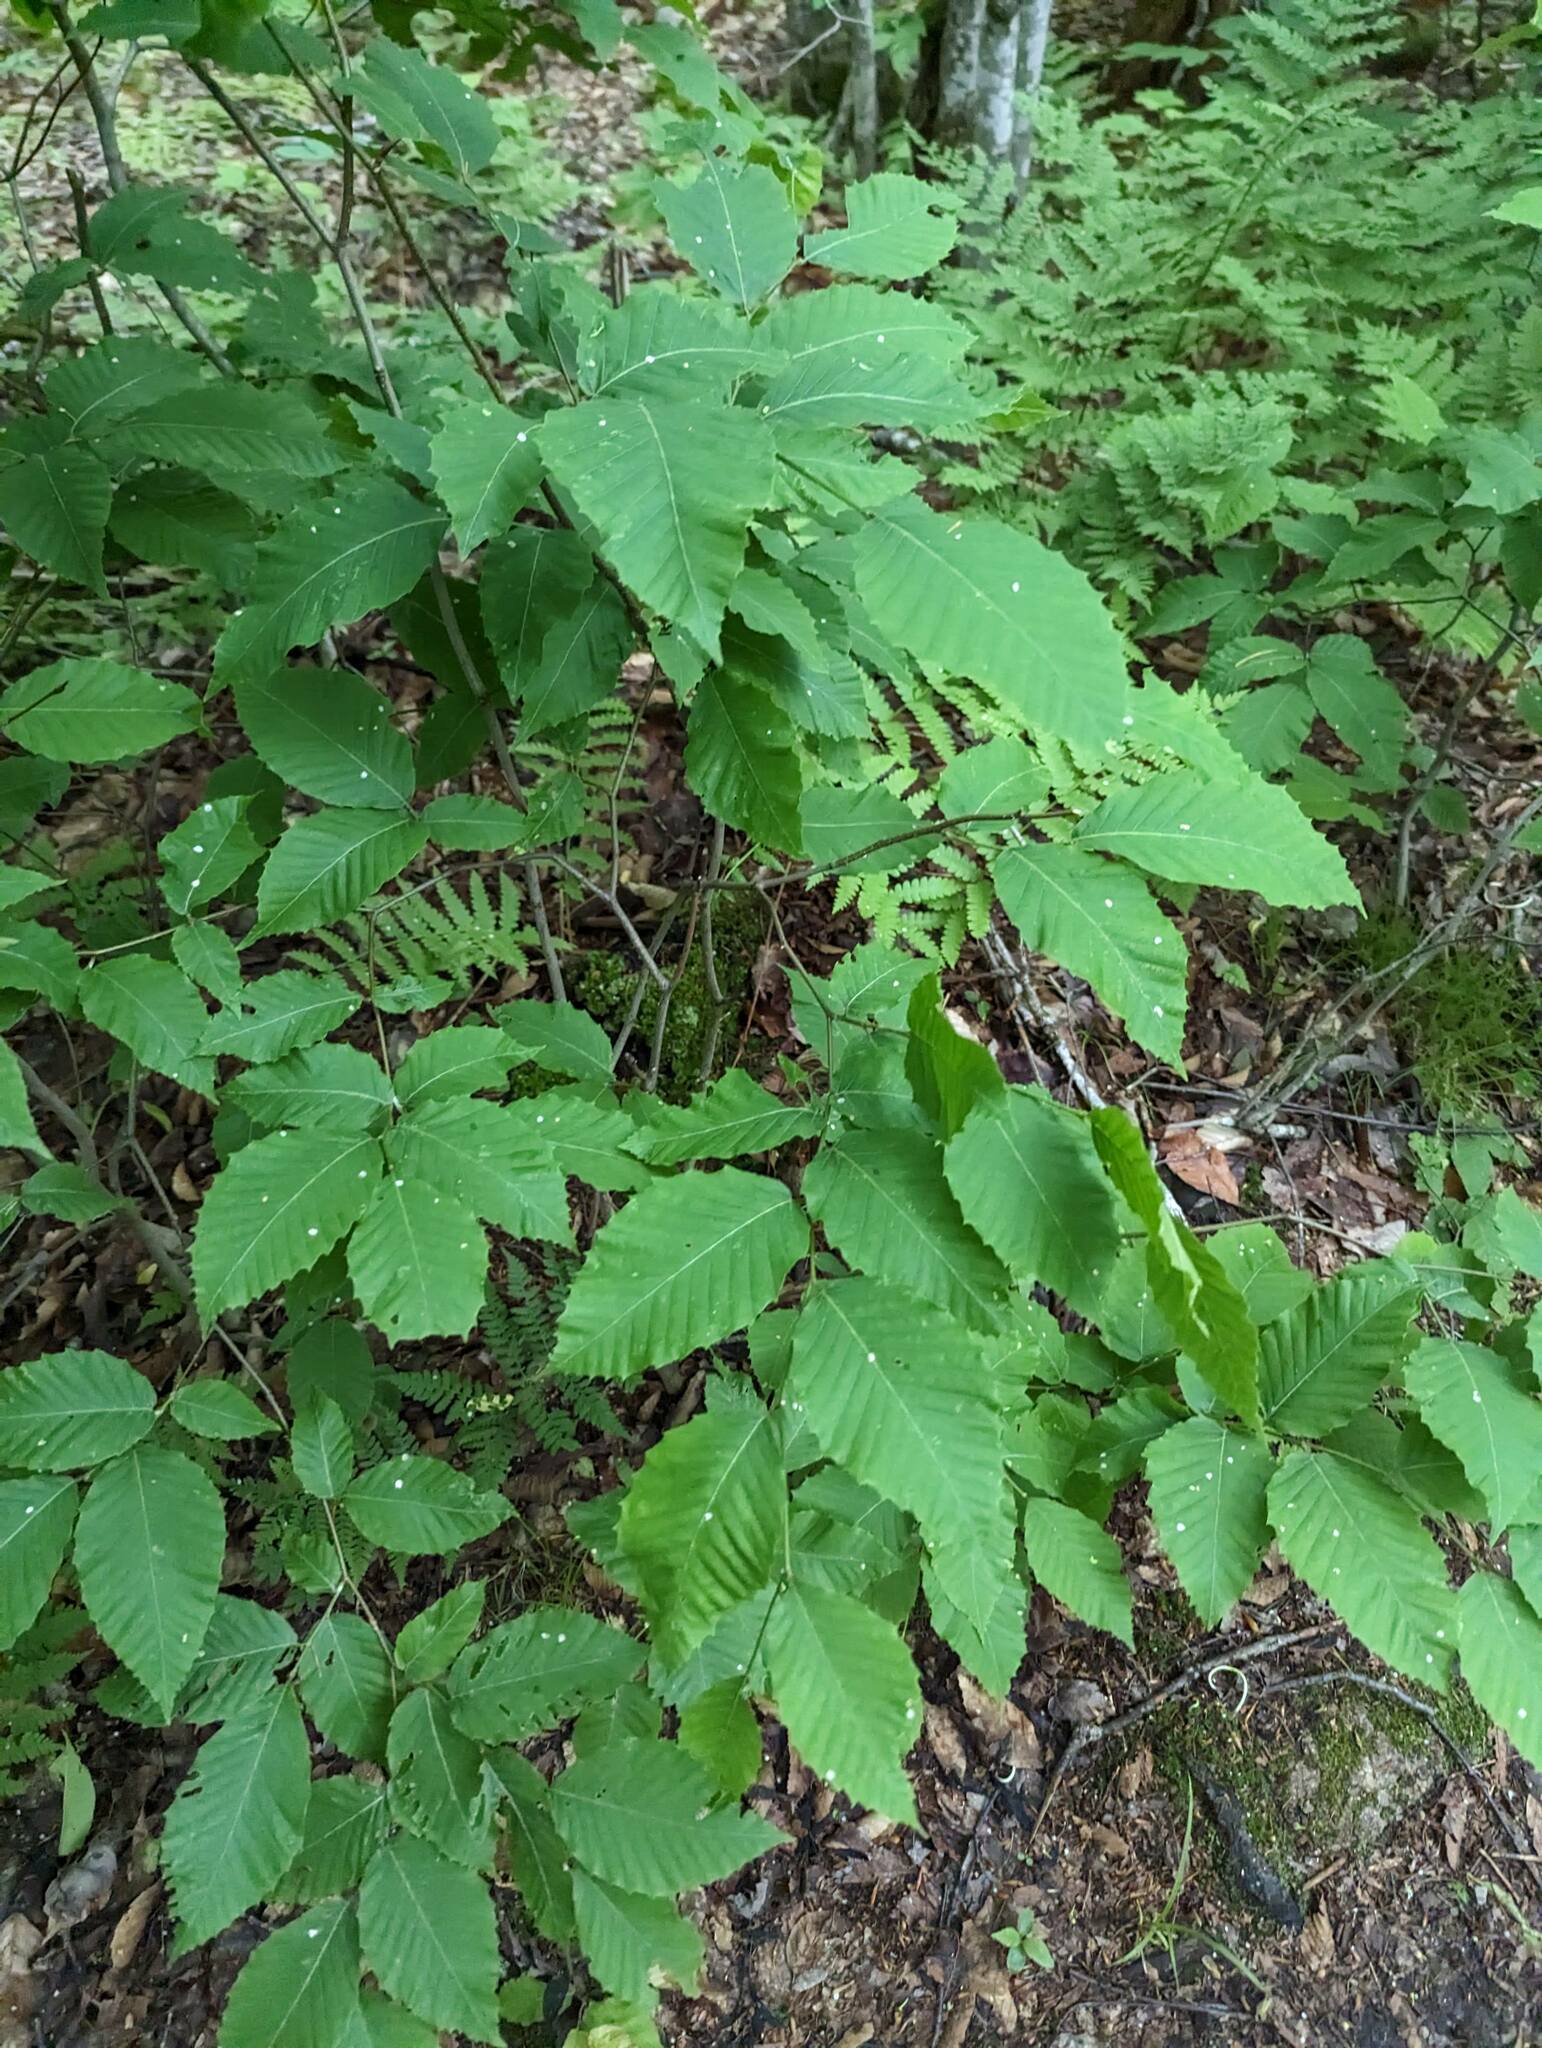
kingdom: Plantae
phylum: Tracheophyta
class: Magnoliopsida
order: Fagales
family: Fagaceae
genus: Fagus
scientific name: Fagus grandifolia
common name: American beech
